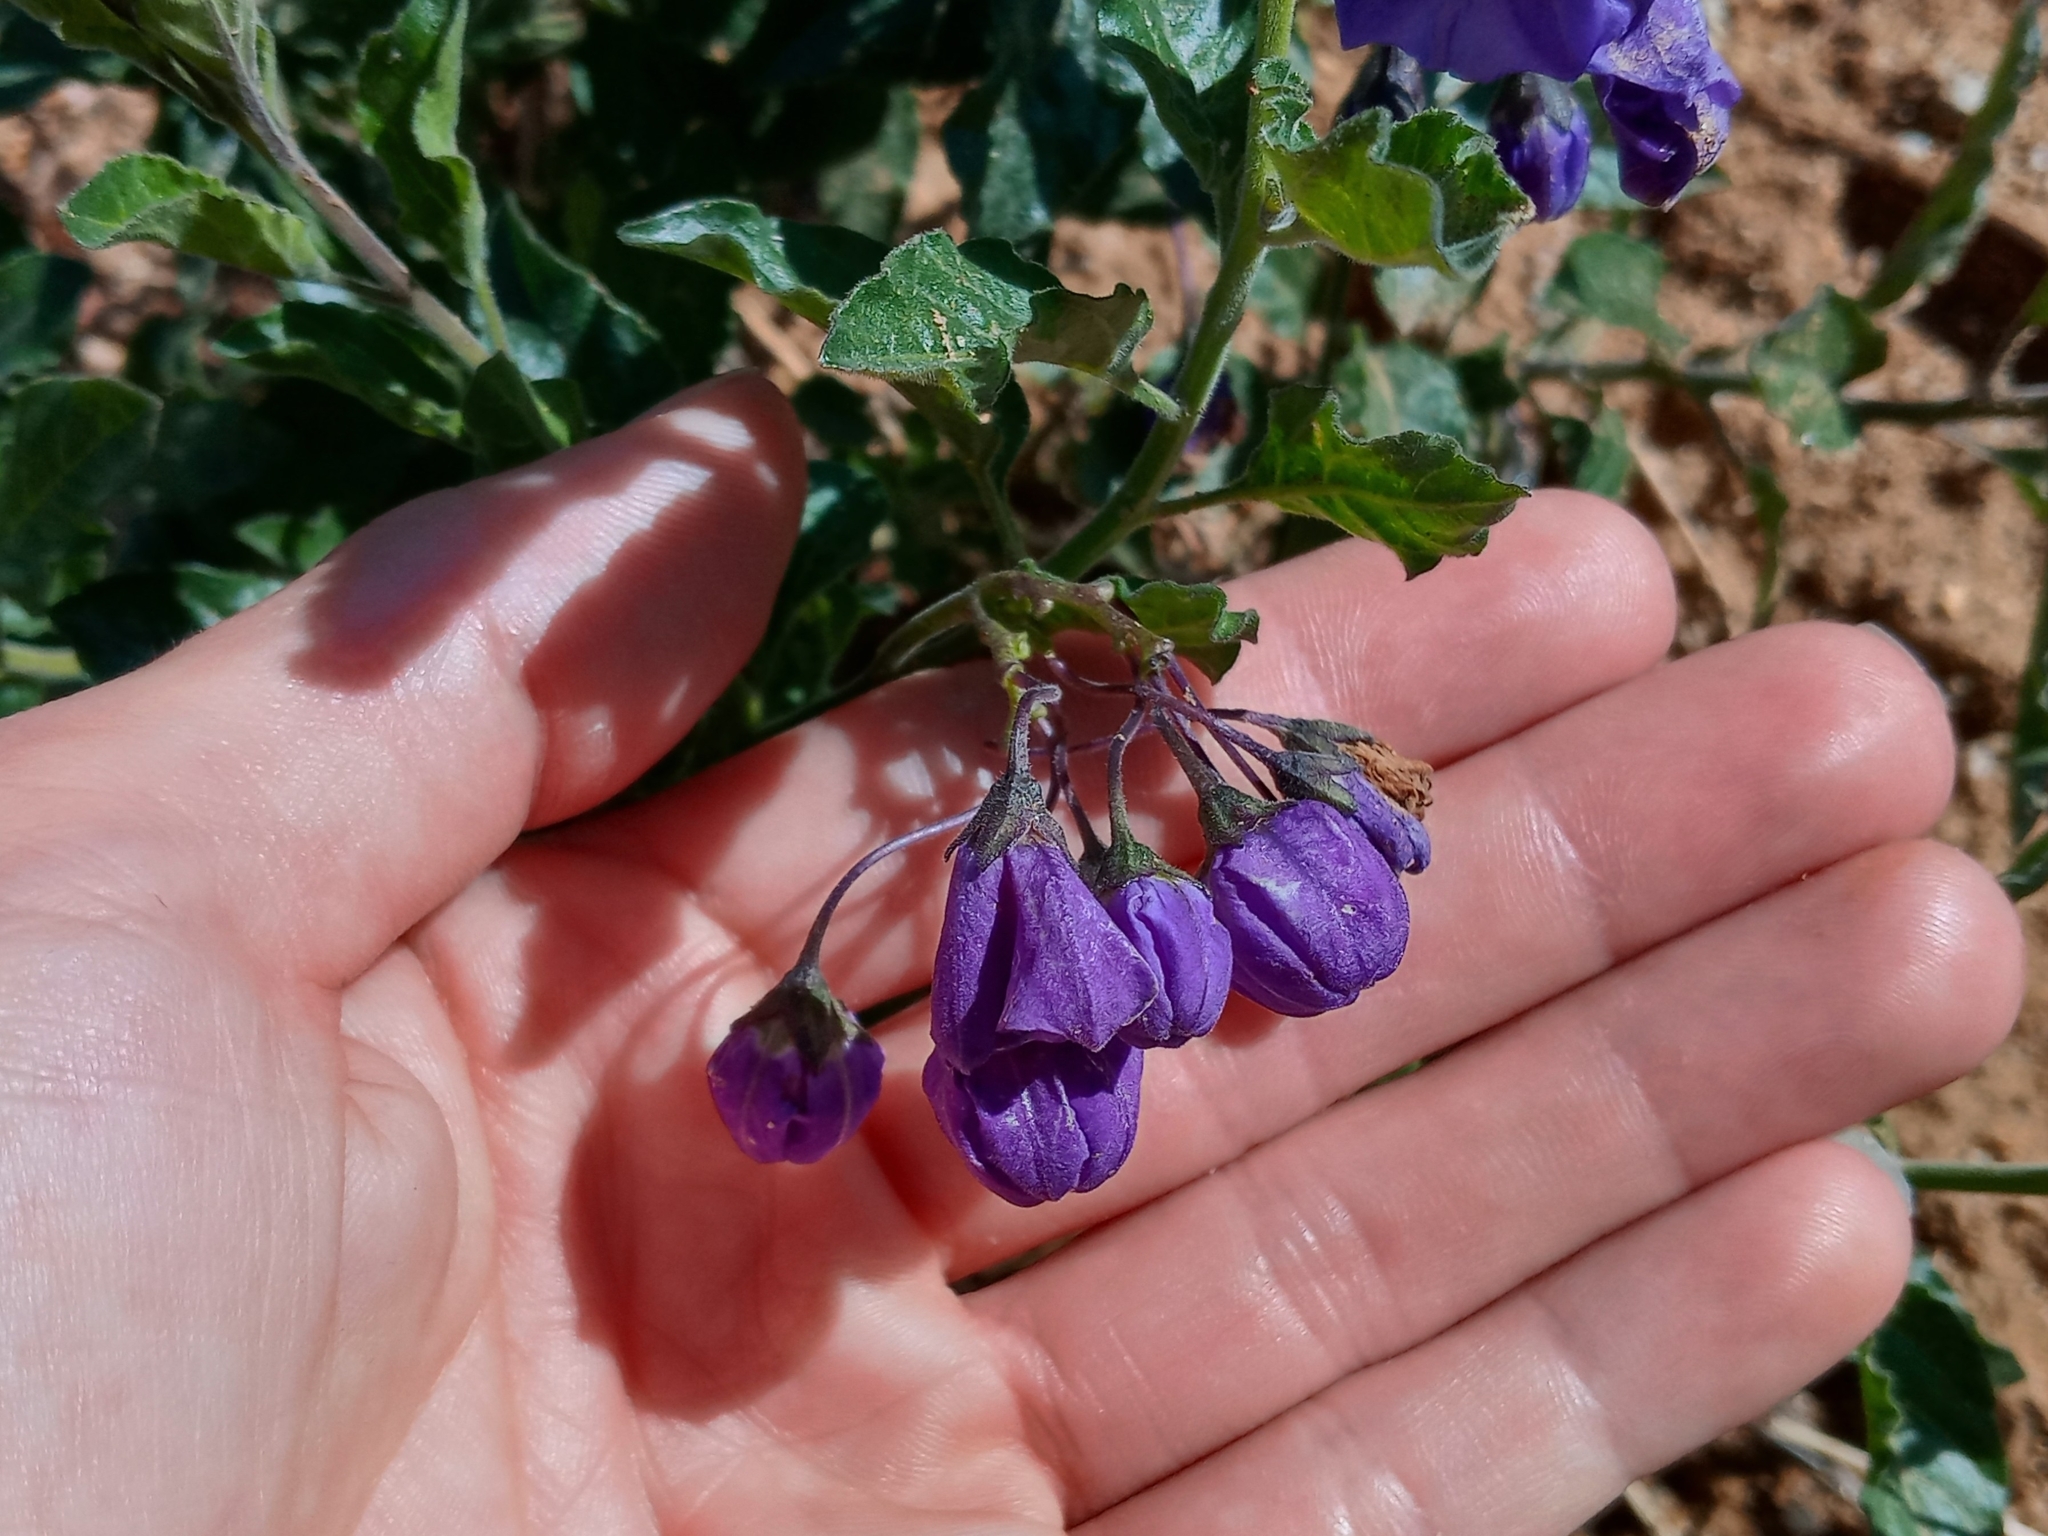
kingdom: Plantae
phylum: Tracheophyta
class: Magnoliopsida
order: Solanales
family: Solanaceae
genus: Solanum
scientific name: Solanum umbelliferum
